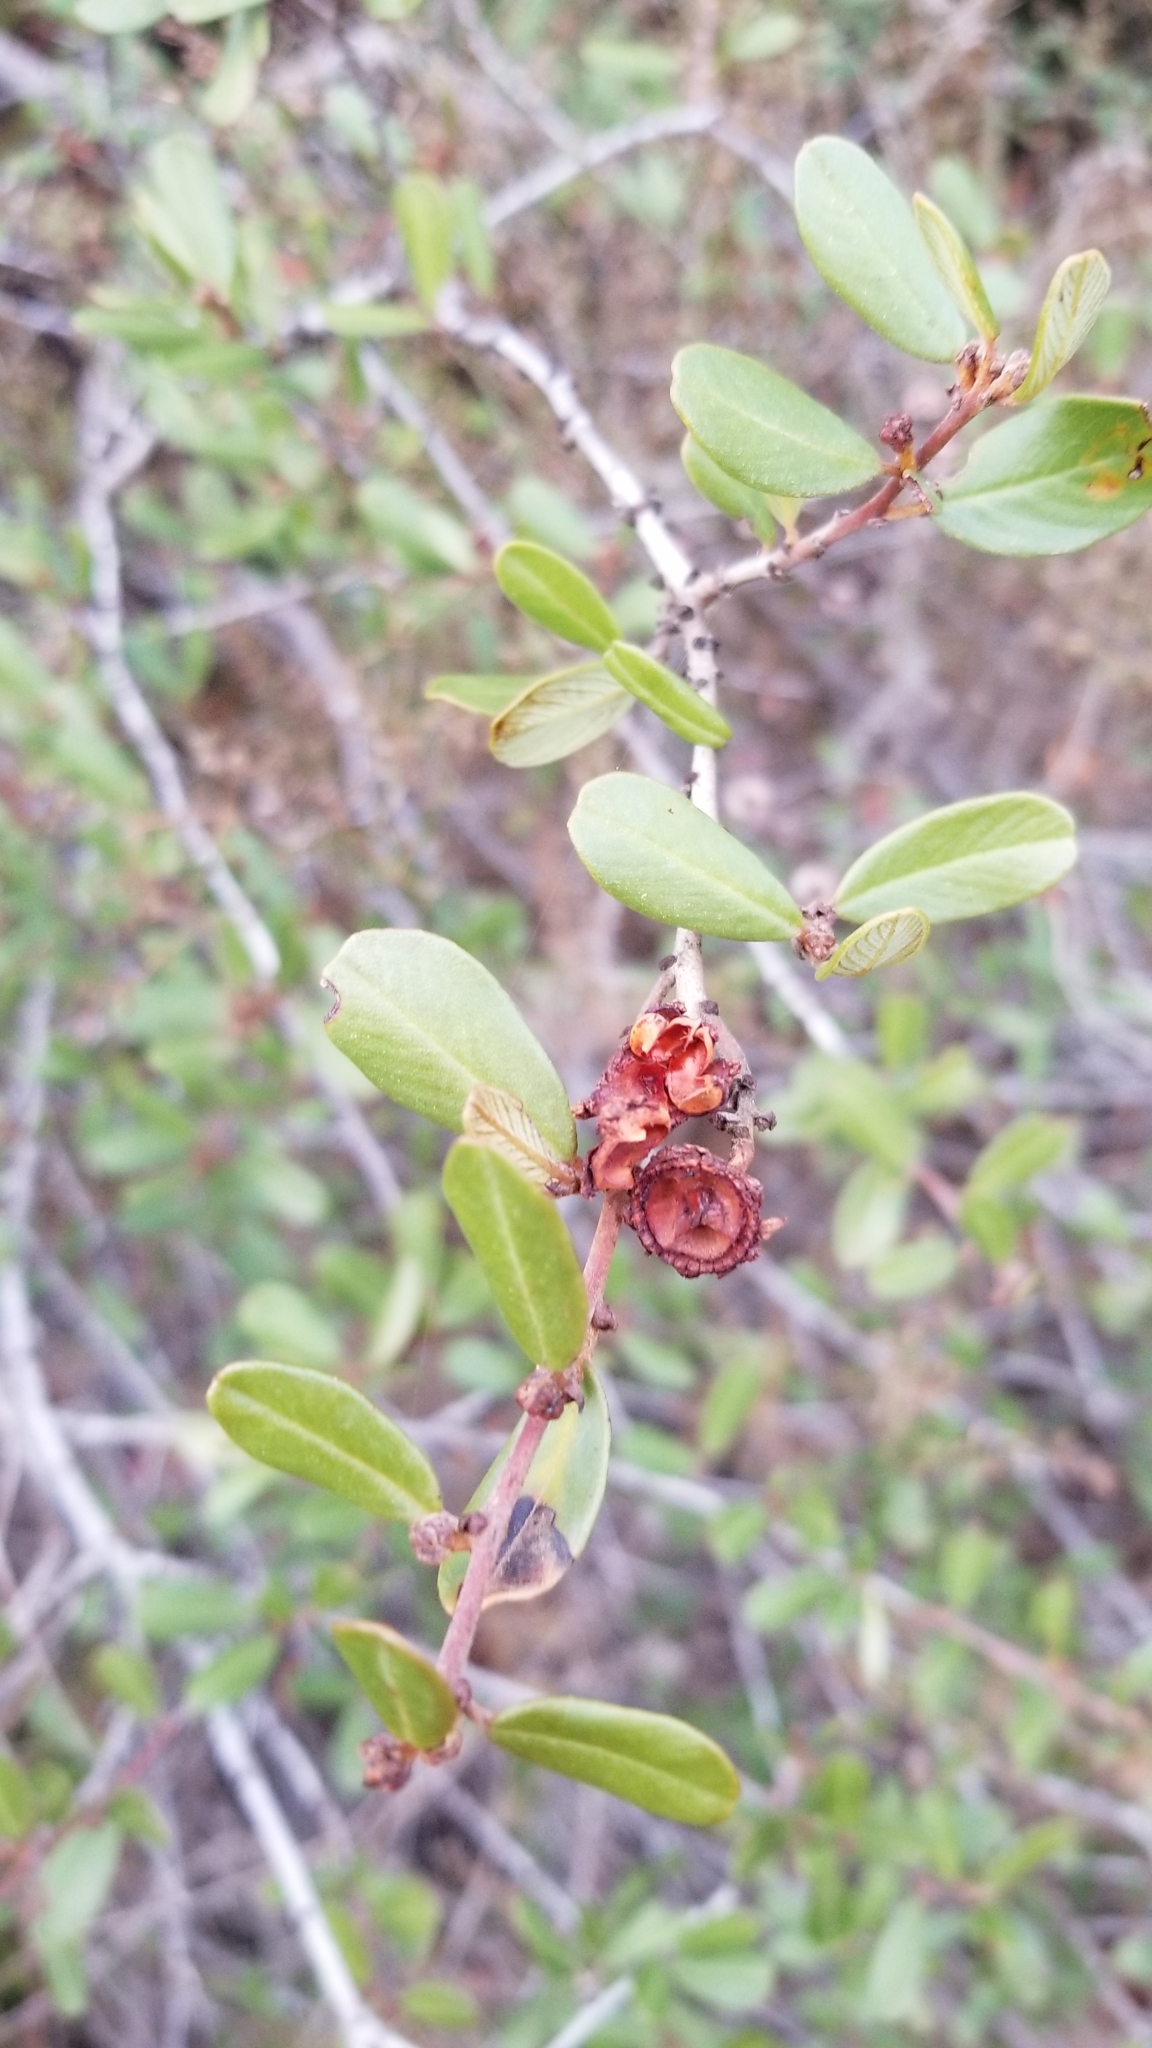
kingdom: Plantae
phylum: Tracheophyta
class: Magnoliopsida
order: Rosales
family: Rhamnaceae
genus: Ceanothus
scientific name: Ceanothus megacarpus
